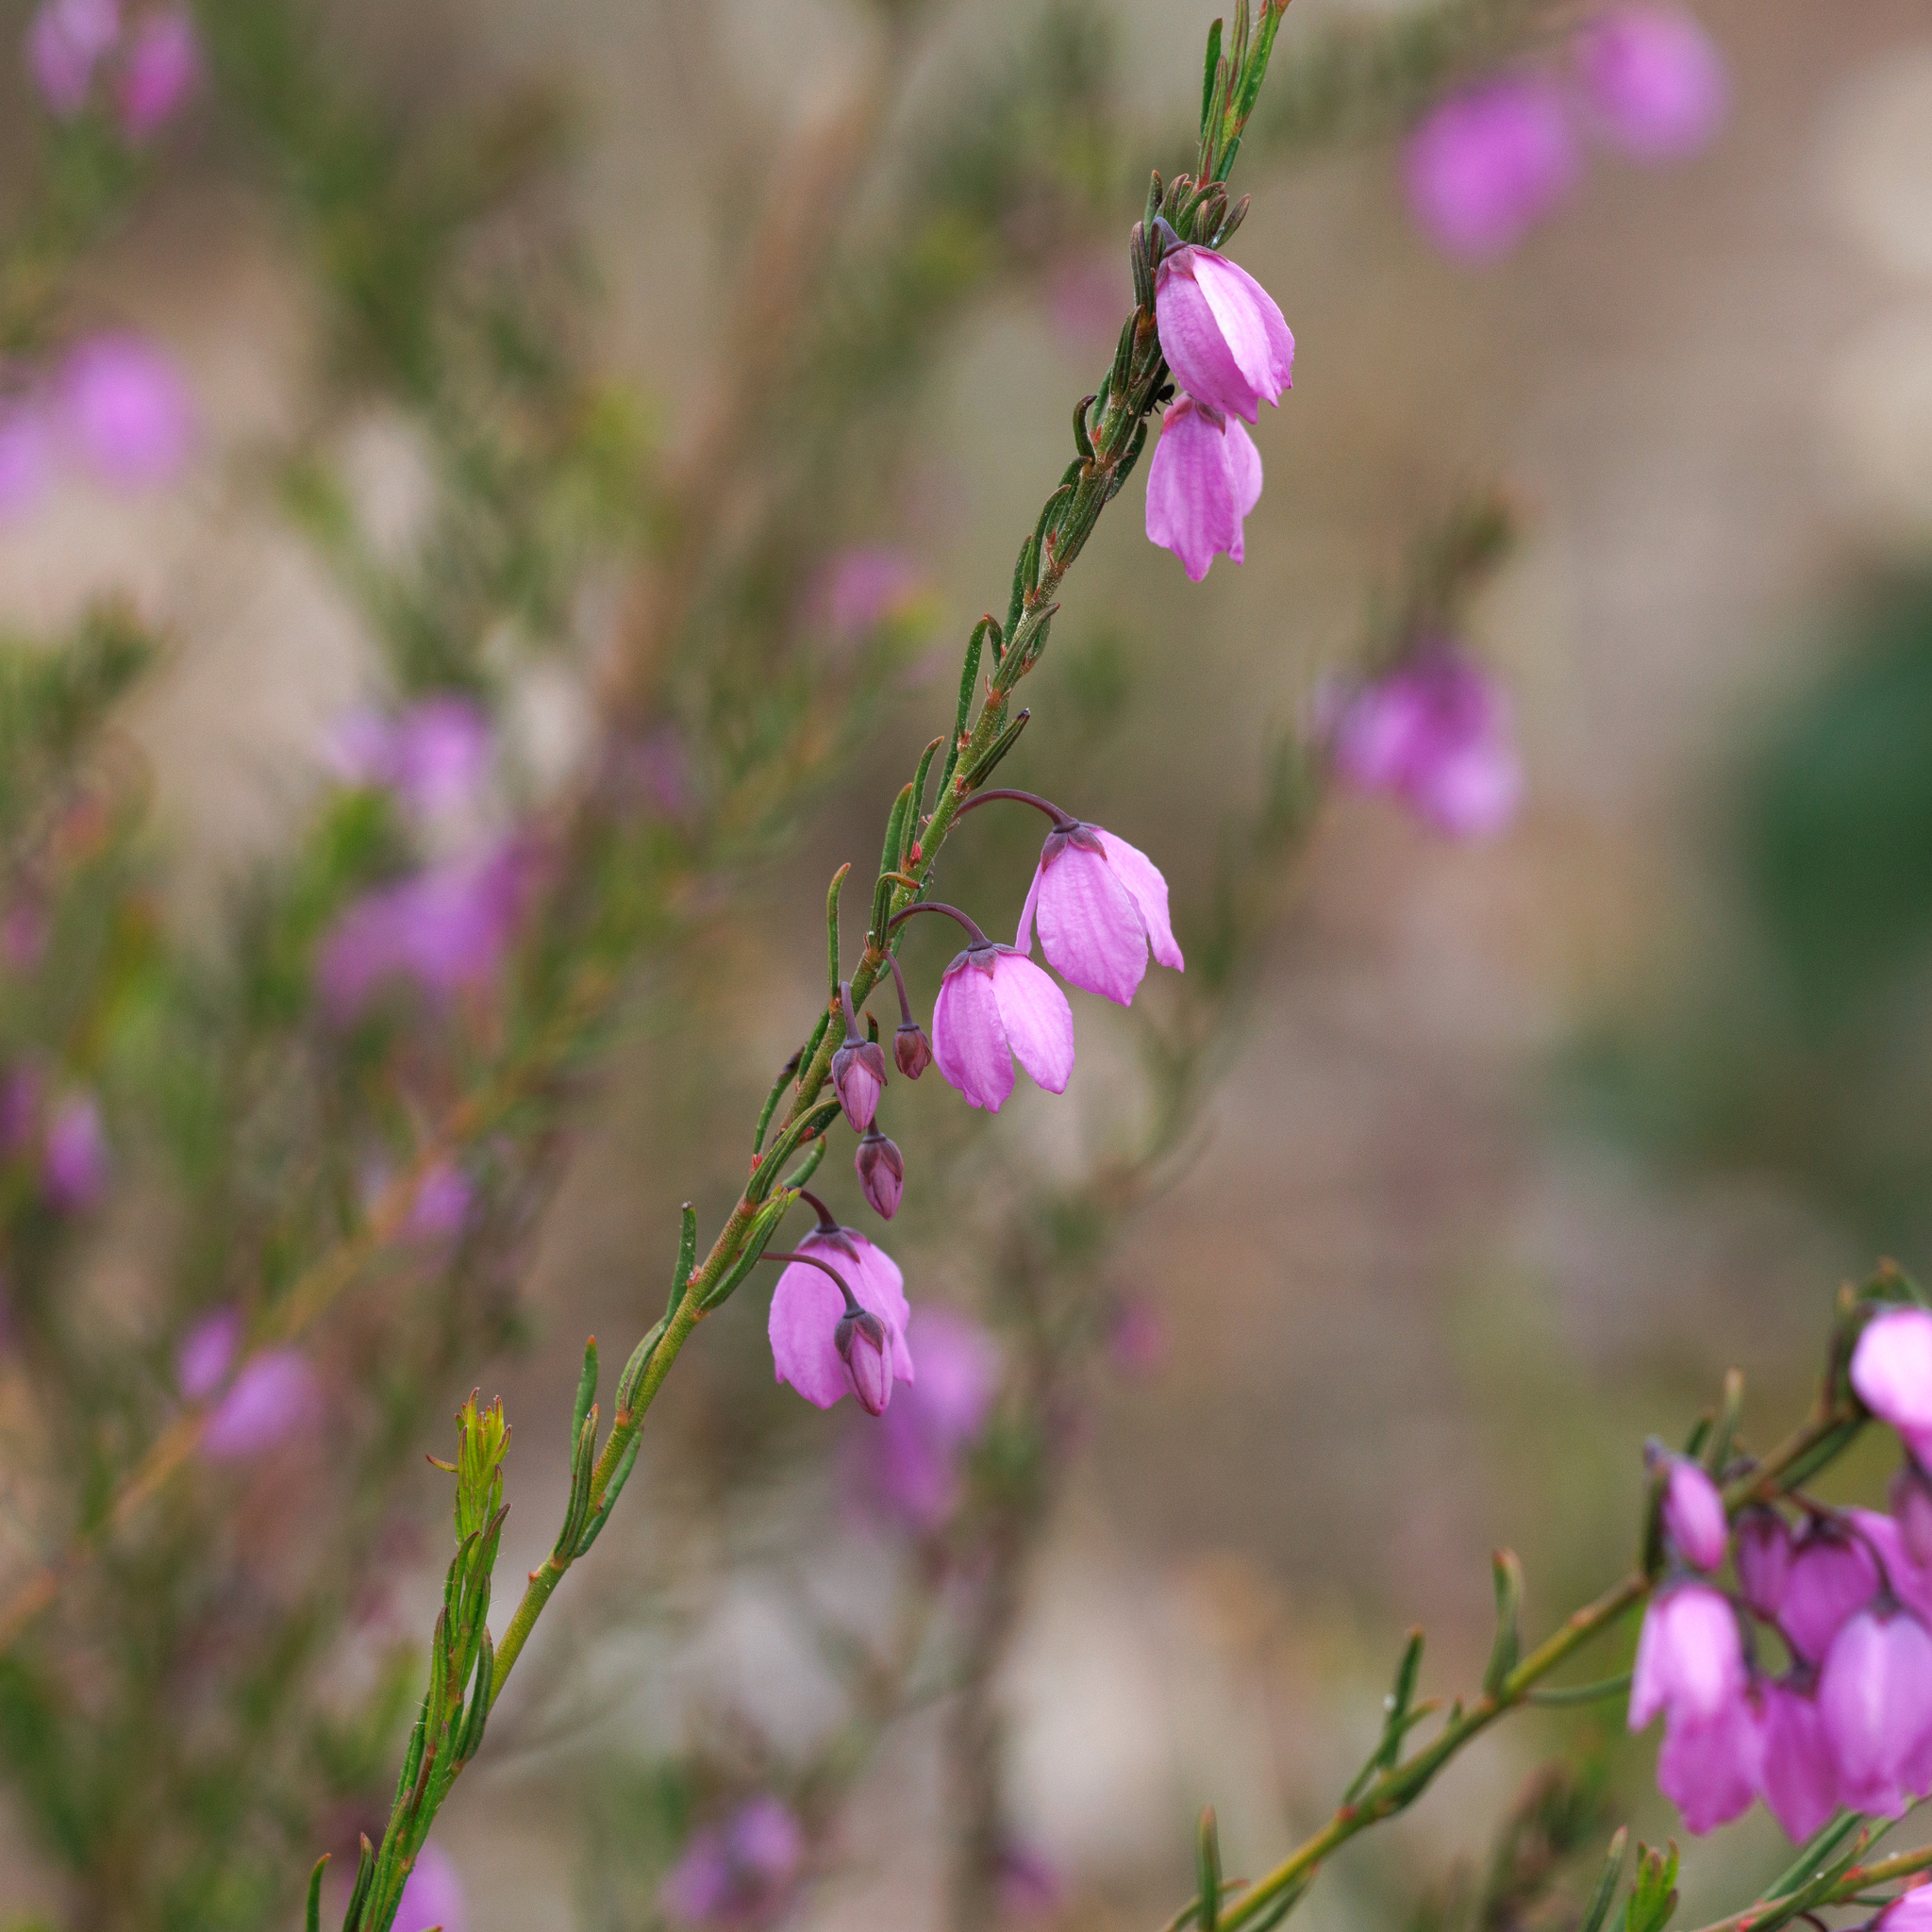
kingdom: Plantae
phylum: Tracheophyta
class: Magnoliopsida
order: Oxalidales
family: Elaeocarpaceae
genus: Tetratheca
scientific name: Tetratheca pilosa
